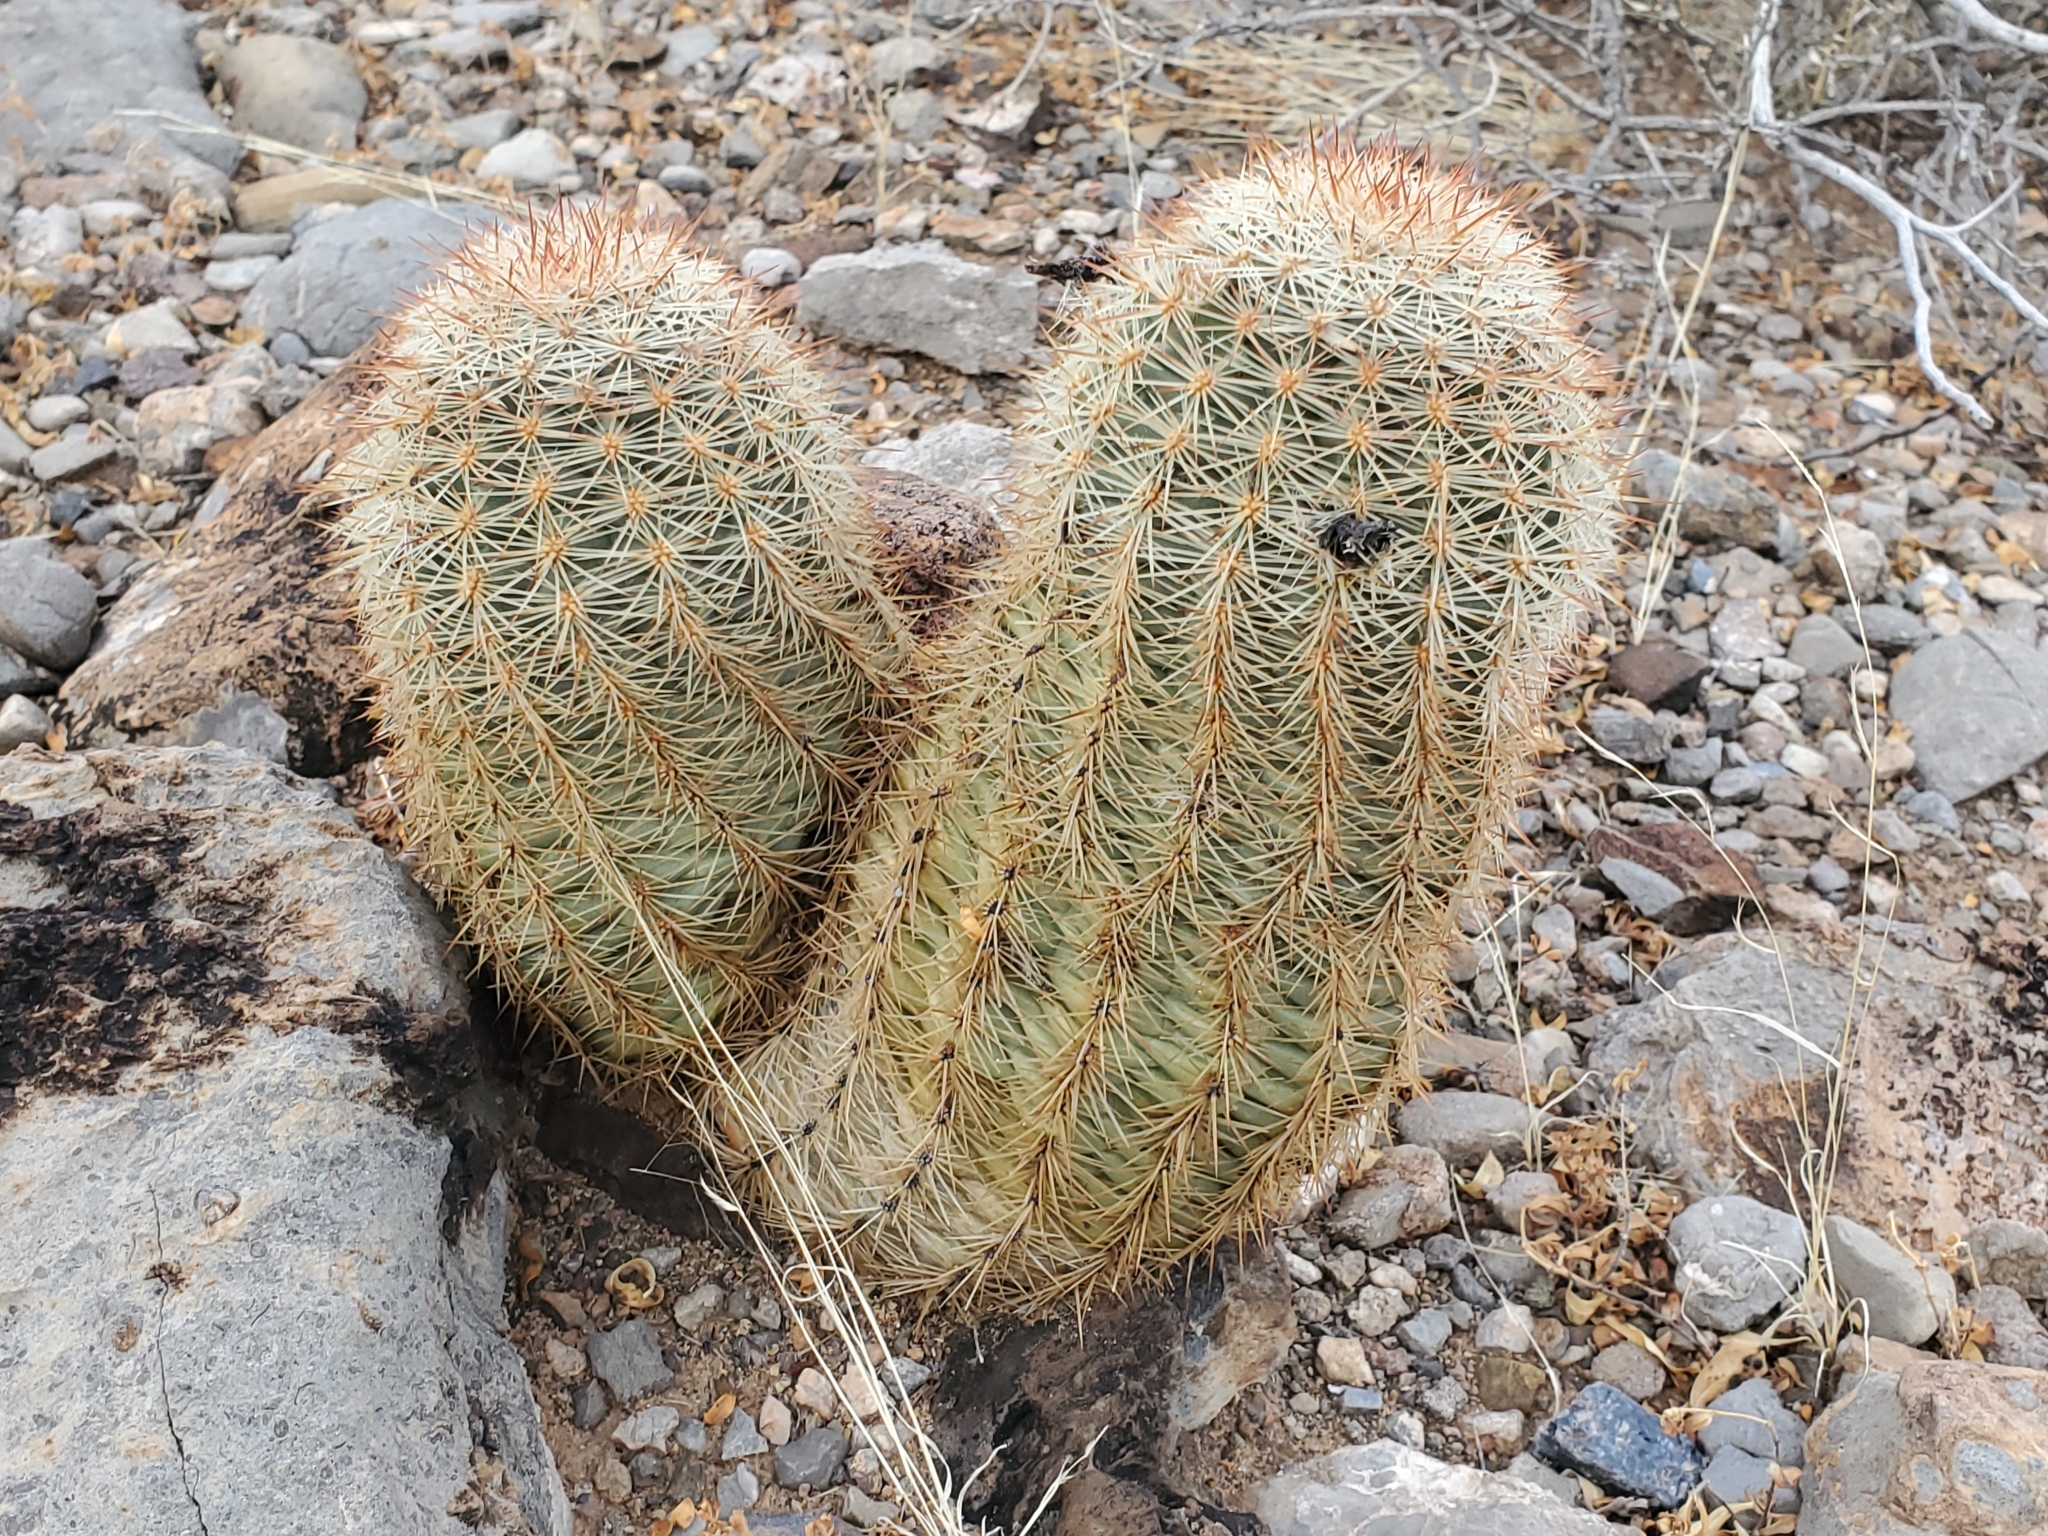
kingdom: Plantae
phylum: Tracheophyta
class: Magnoliopsida
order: Caryophyllales
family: Cactaceae
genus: Echinocereus
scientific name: Echinocereus dasyacanthus
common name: Spiny hedgehog cactus
